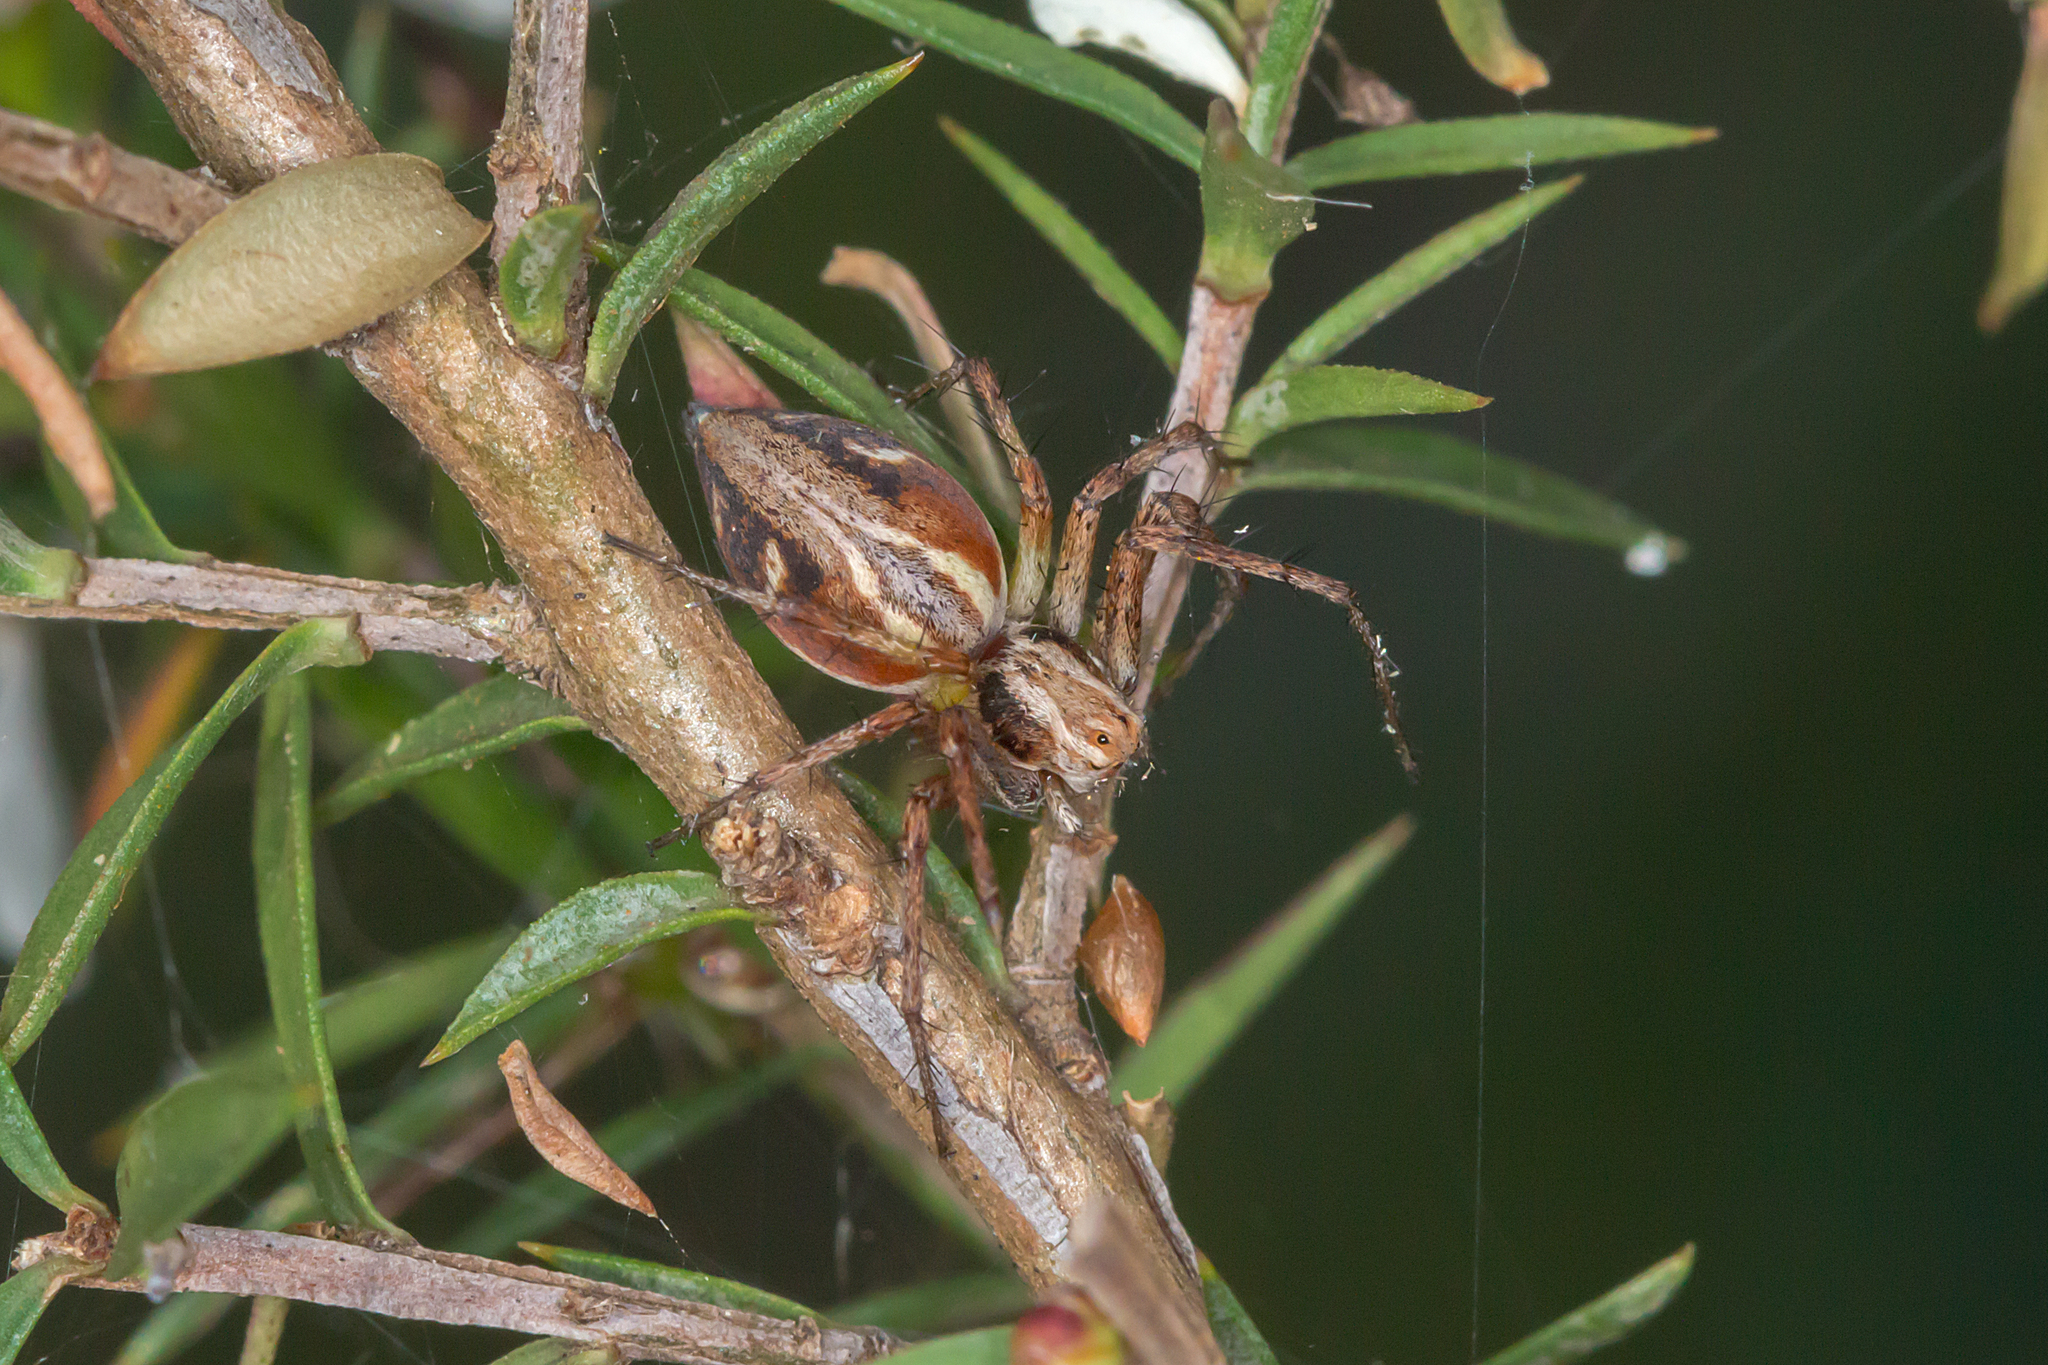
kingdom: Animalia
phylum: Arthropoda
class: Arachnida
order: Araneae
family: Oxyopidae
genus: Oxyopes
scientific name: Oxyopes amoenus
